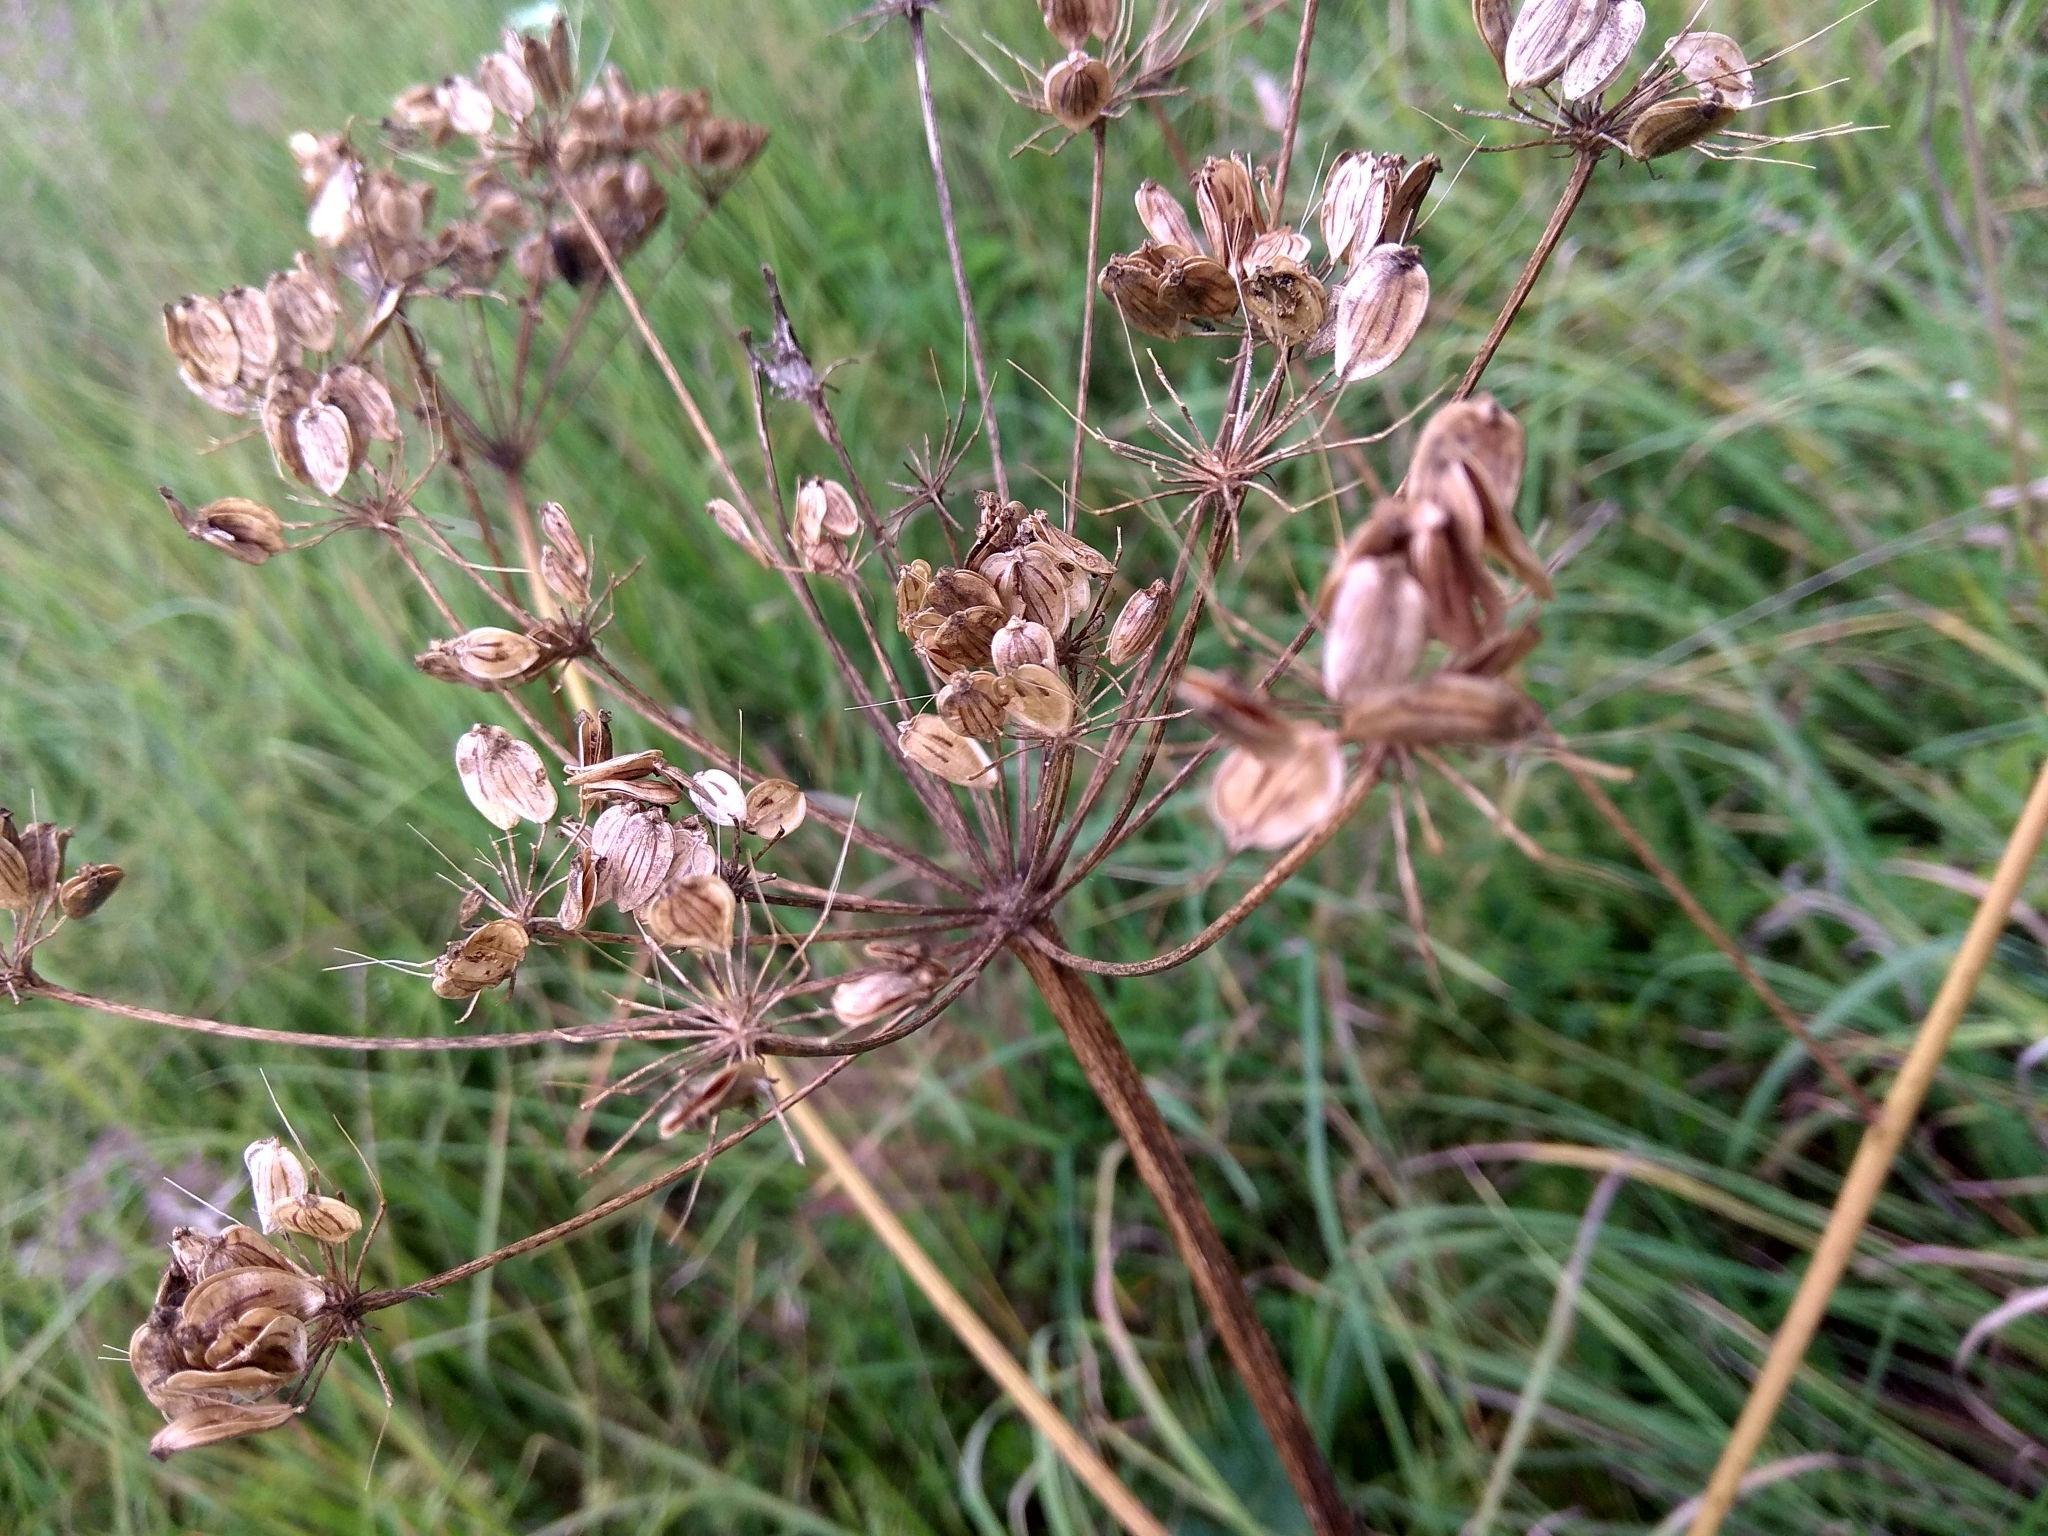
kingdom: Plantae
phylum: Tracheophyta
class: Magnoliopsida
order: Apiales
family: Apiaceae
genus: Heracleum
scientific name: Heracleum sphondylium
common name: Hogweed
